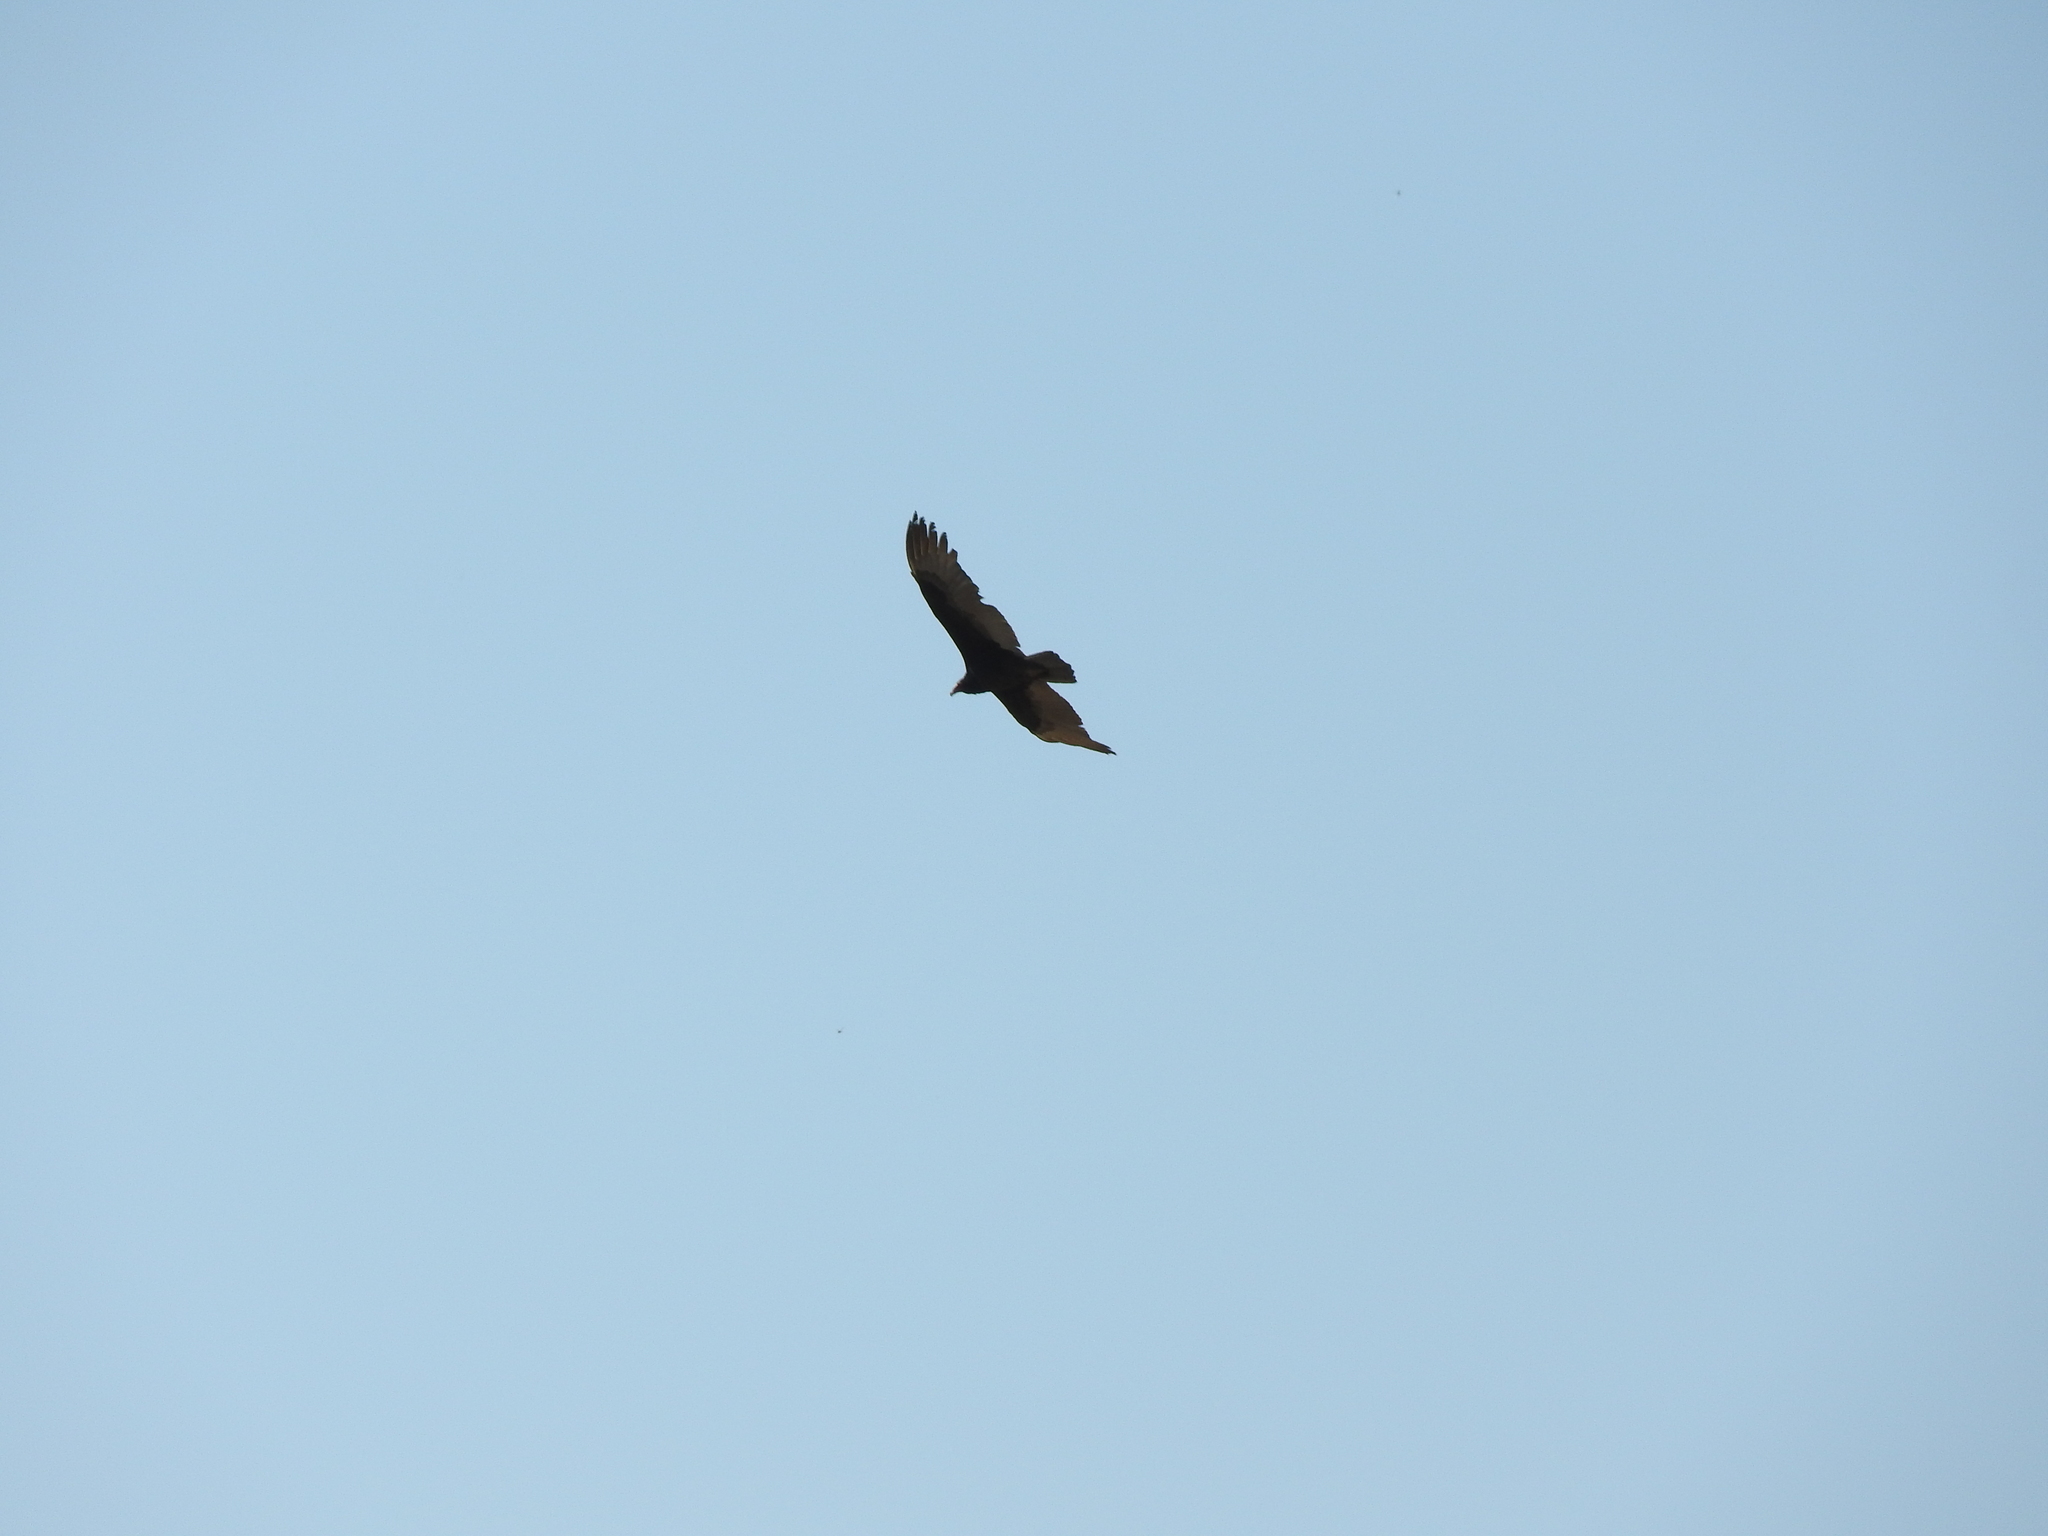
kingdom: Animalia
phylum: Chordata
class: Aves
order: Accipitriformes
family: Cathartidae
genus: Cathartes
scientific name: Cathartes aura
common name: Turkey vulture
